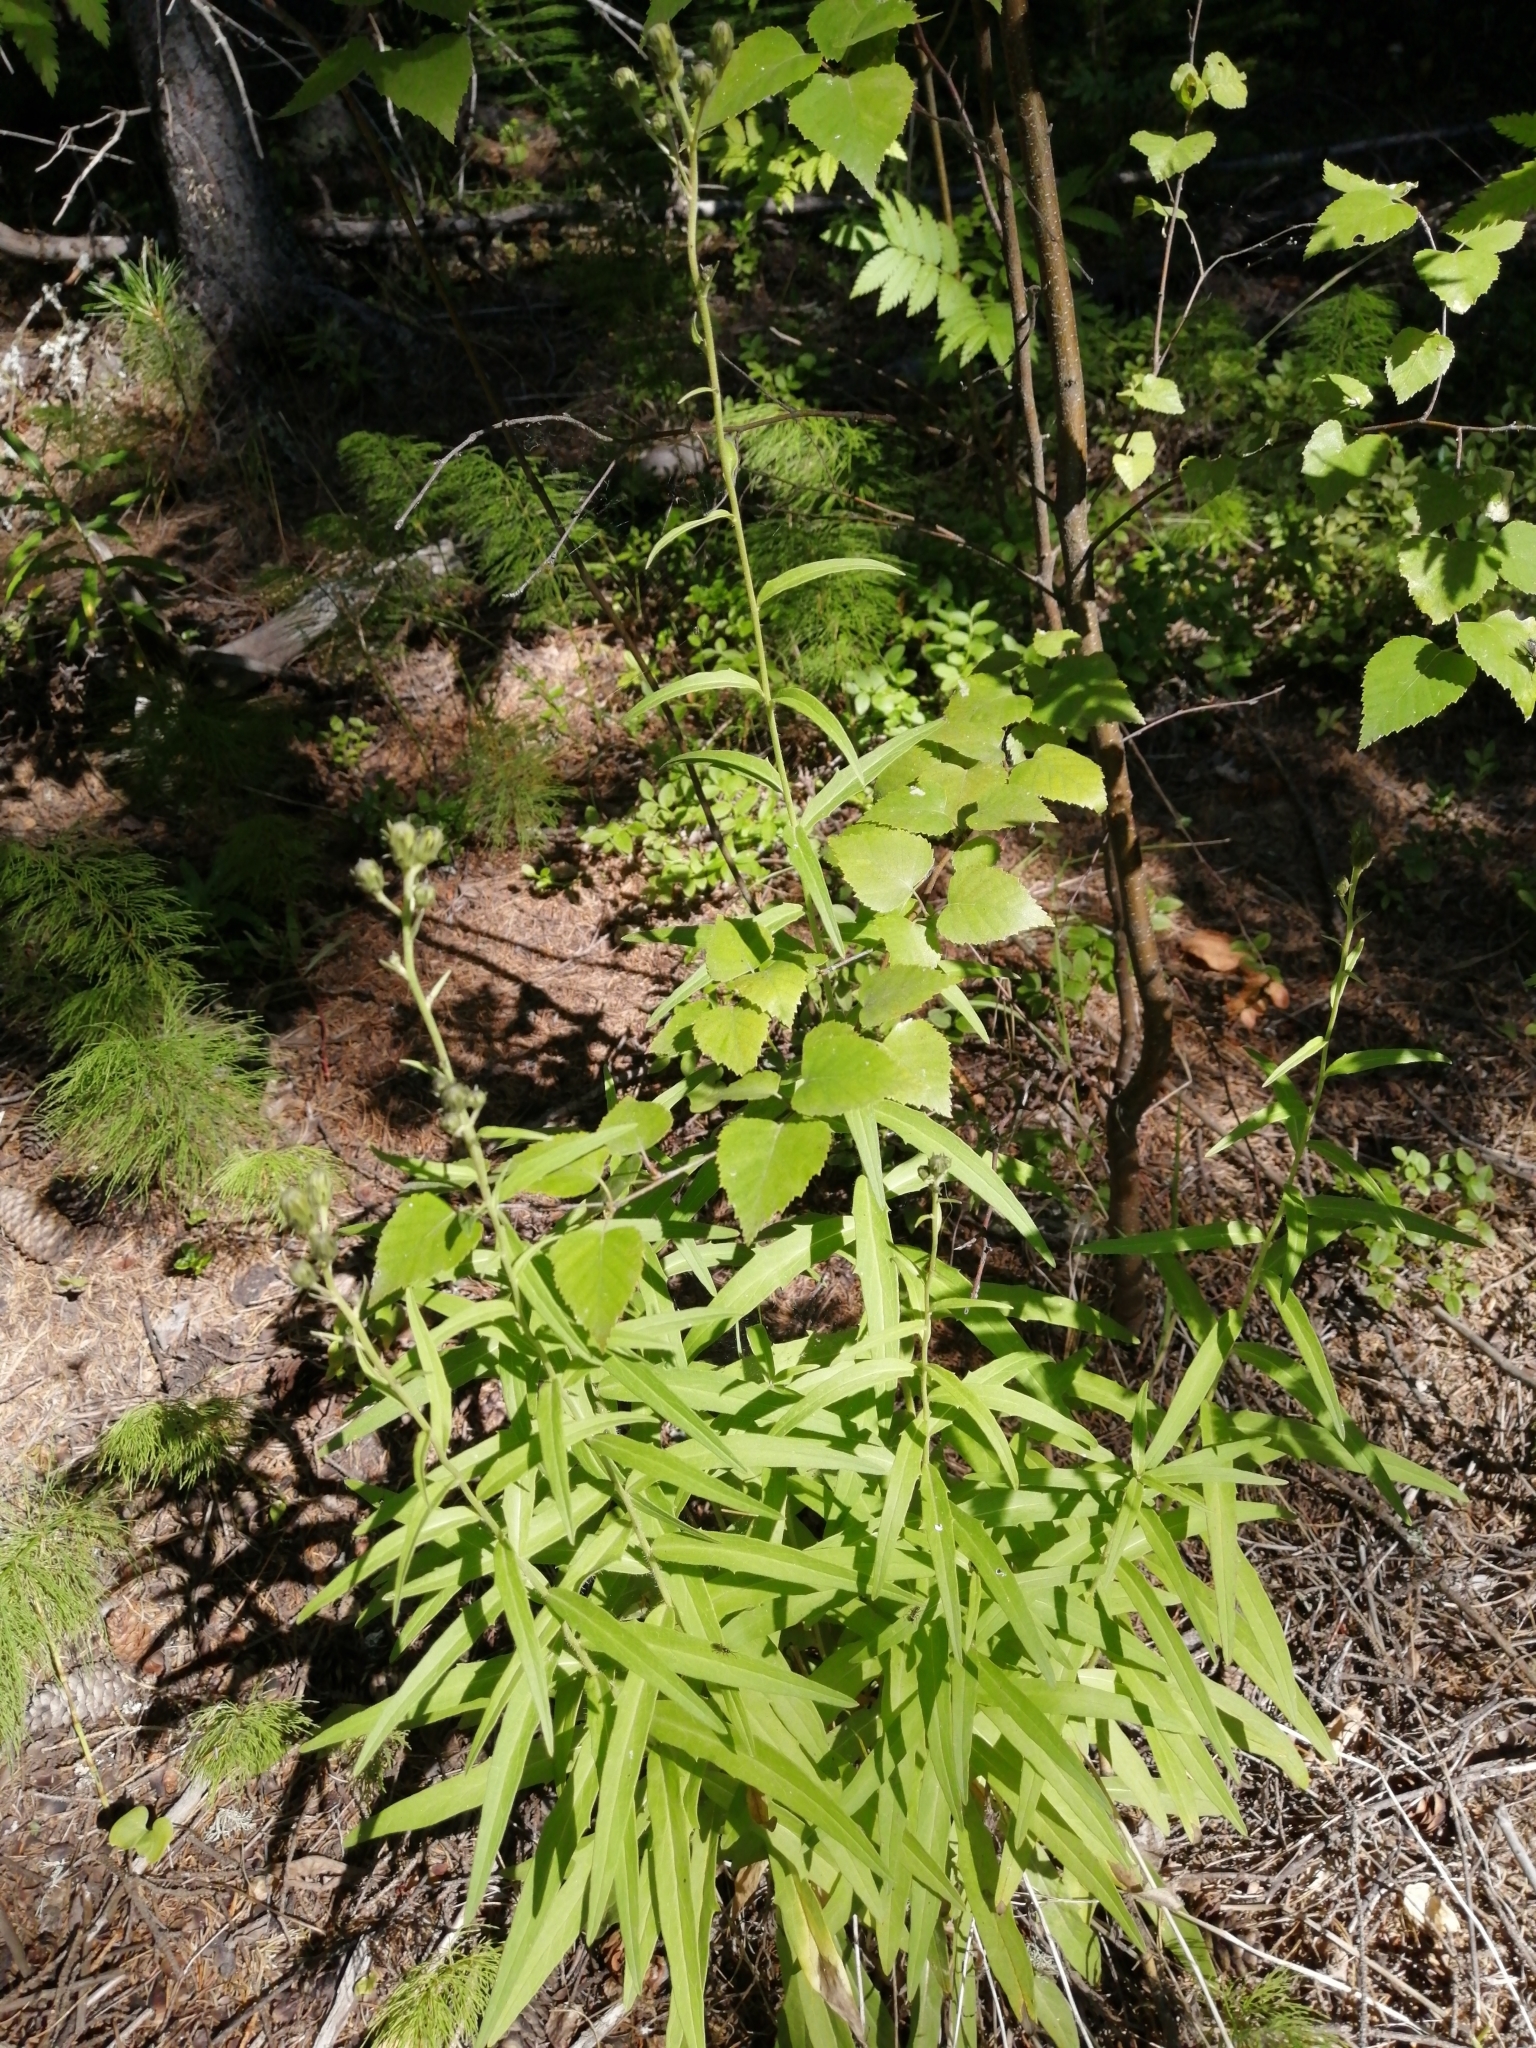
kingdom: Plantae
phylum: Tracheophyta
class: Magnoliopsida
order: Asterales
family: Asteraceae
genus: Hieracium
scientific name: Hieracium umbellatum
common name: Northern hawkweed
